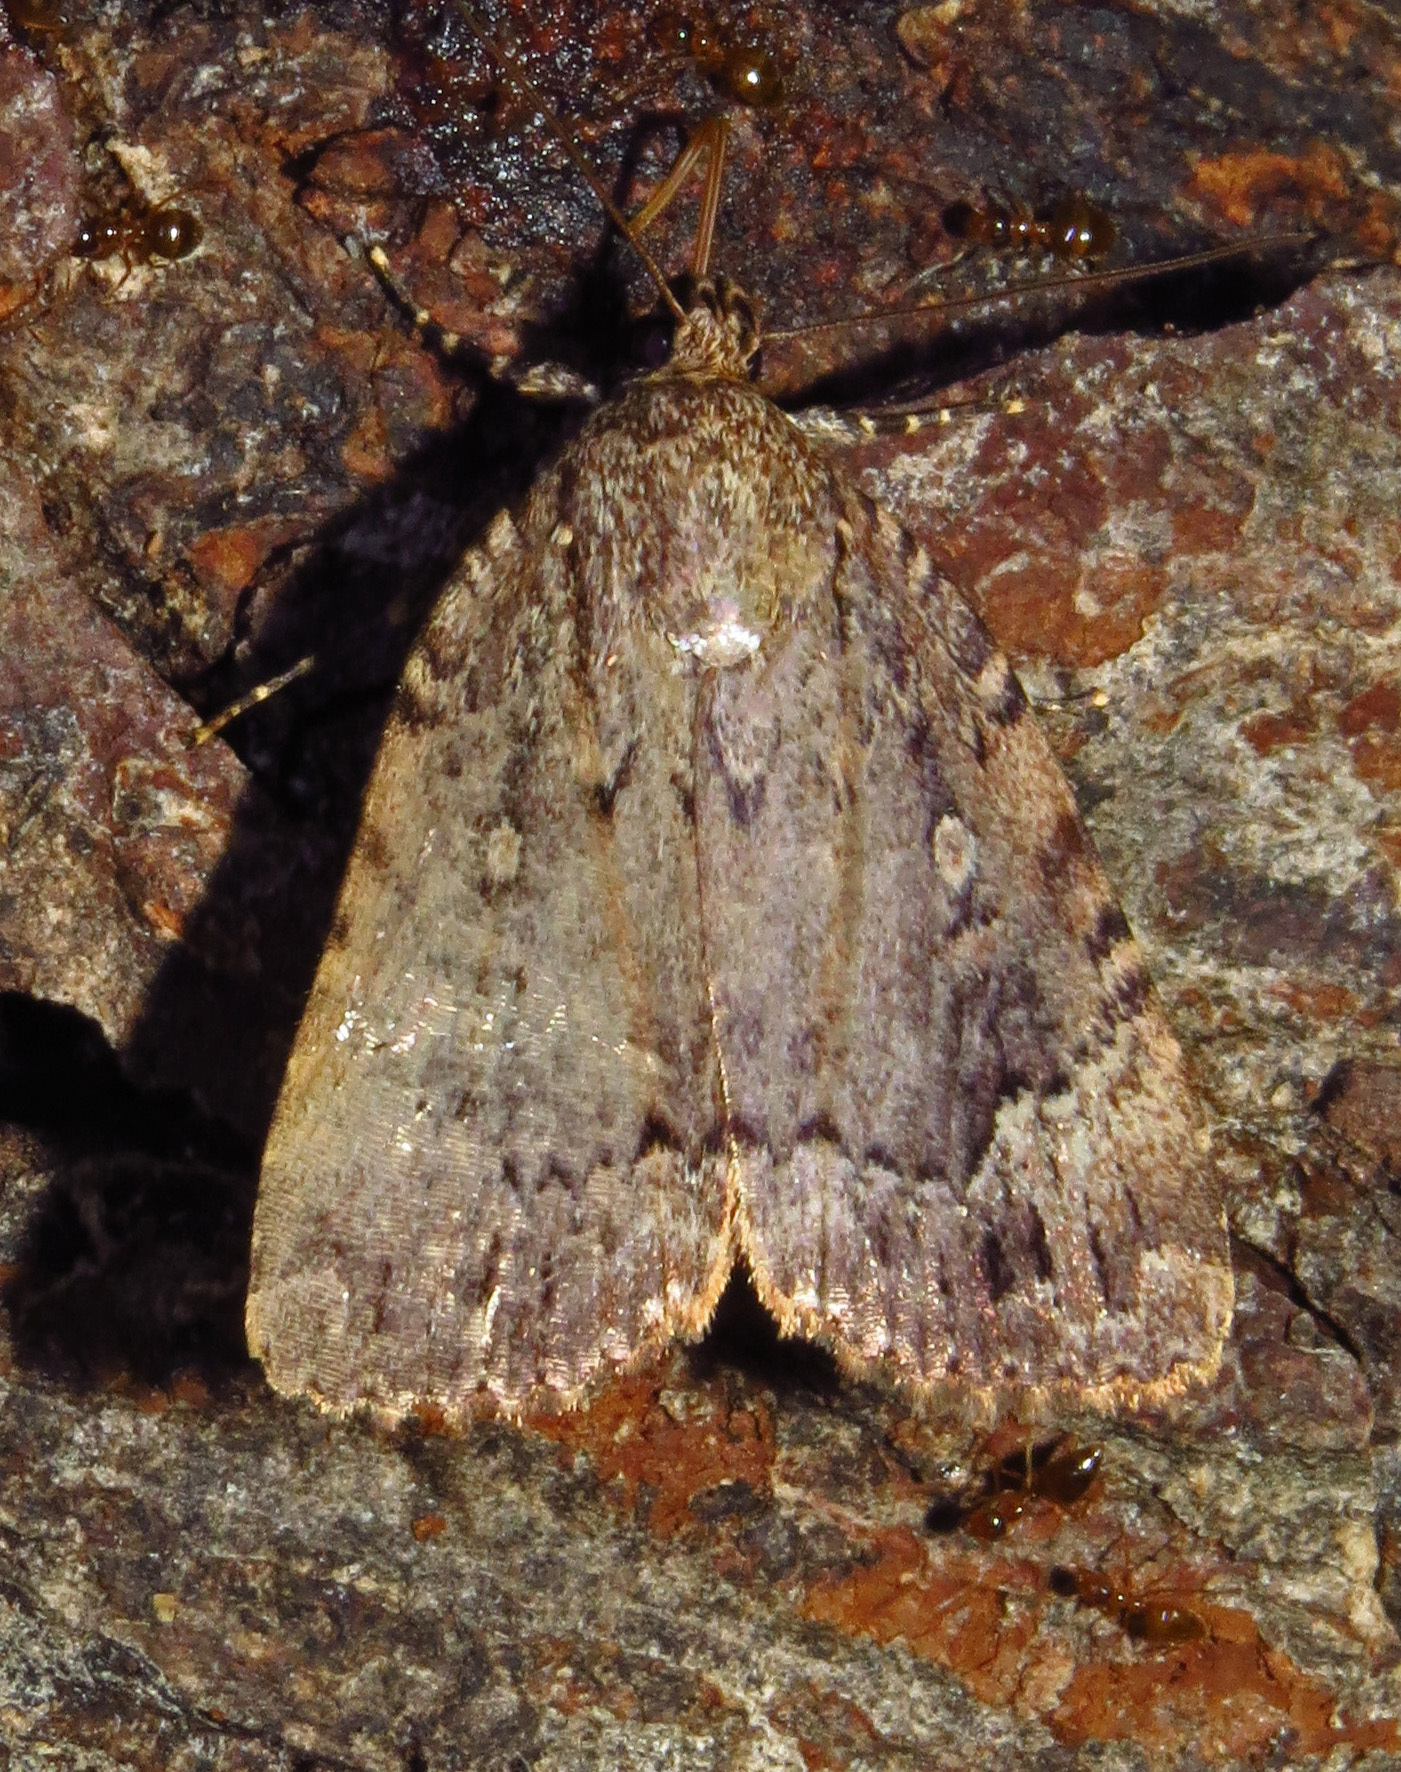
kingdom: Animalia
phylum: Arthropoda
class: Insecta
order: Lepidoptera
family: Noctuidae
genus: Amphipyra
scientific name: Amphipyra pyramidoides
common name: American copper underwing
